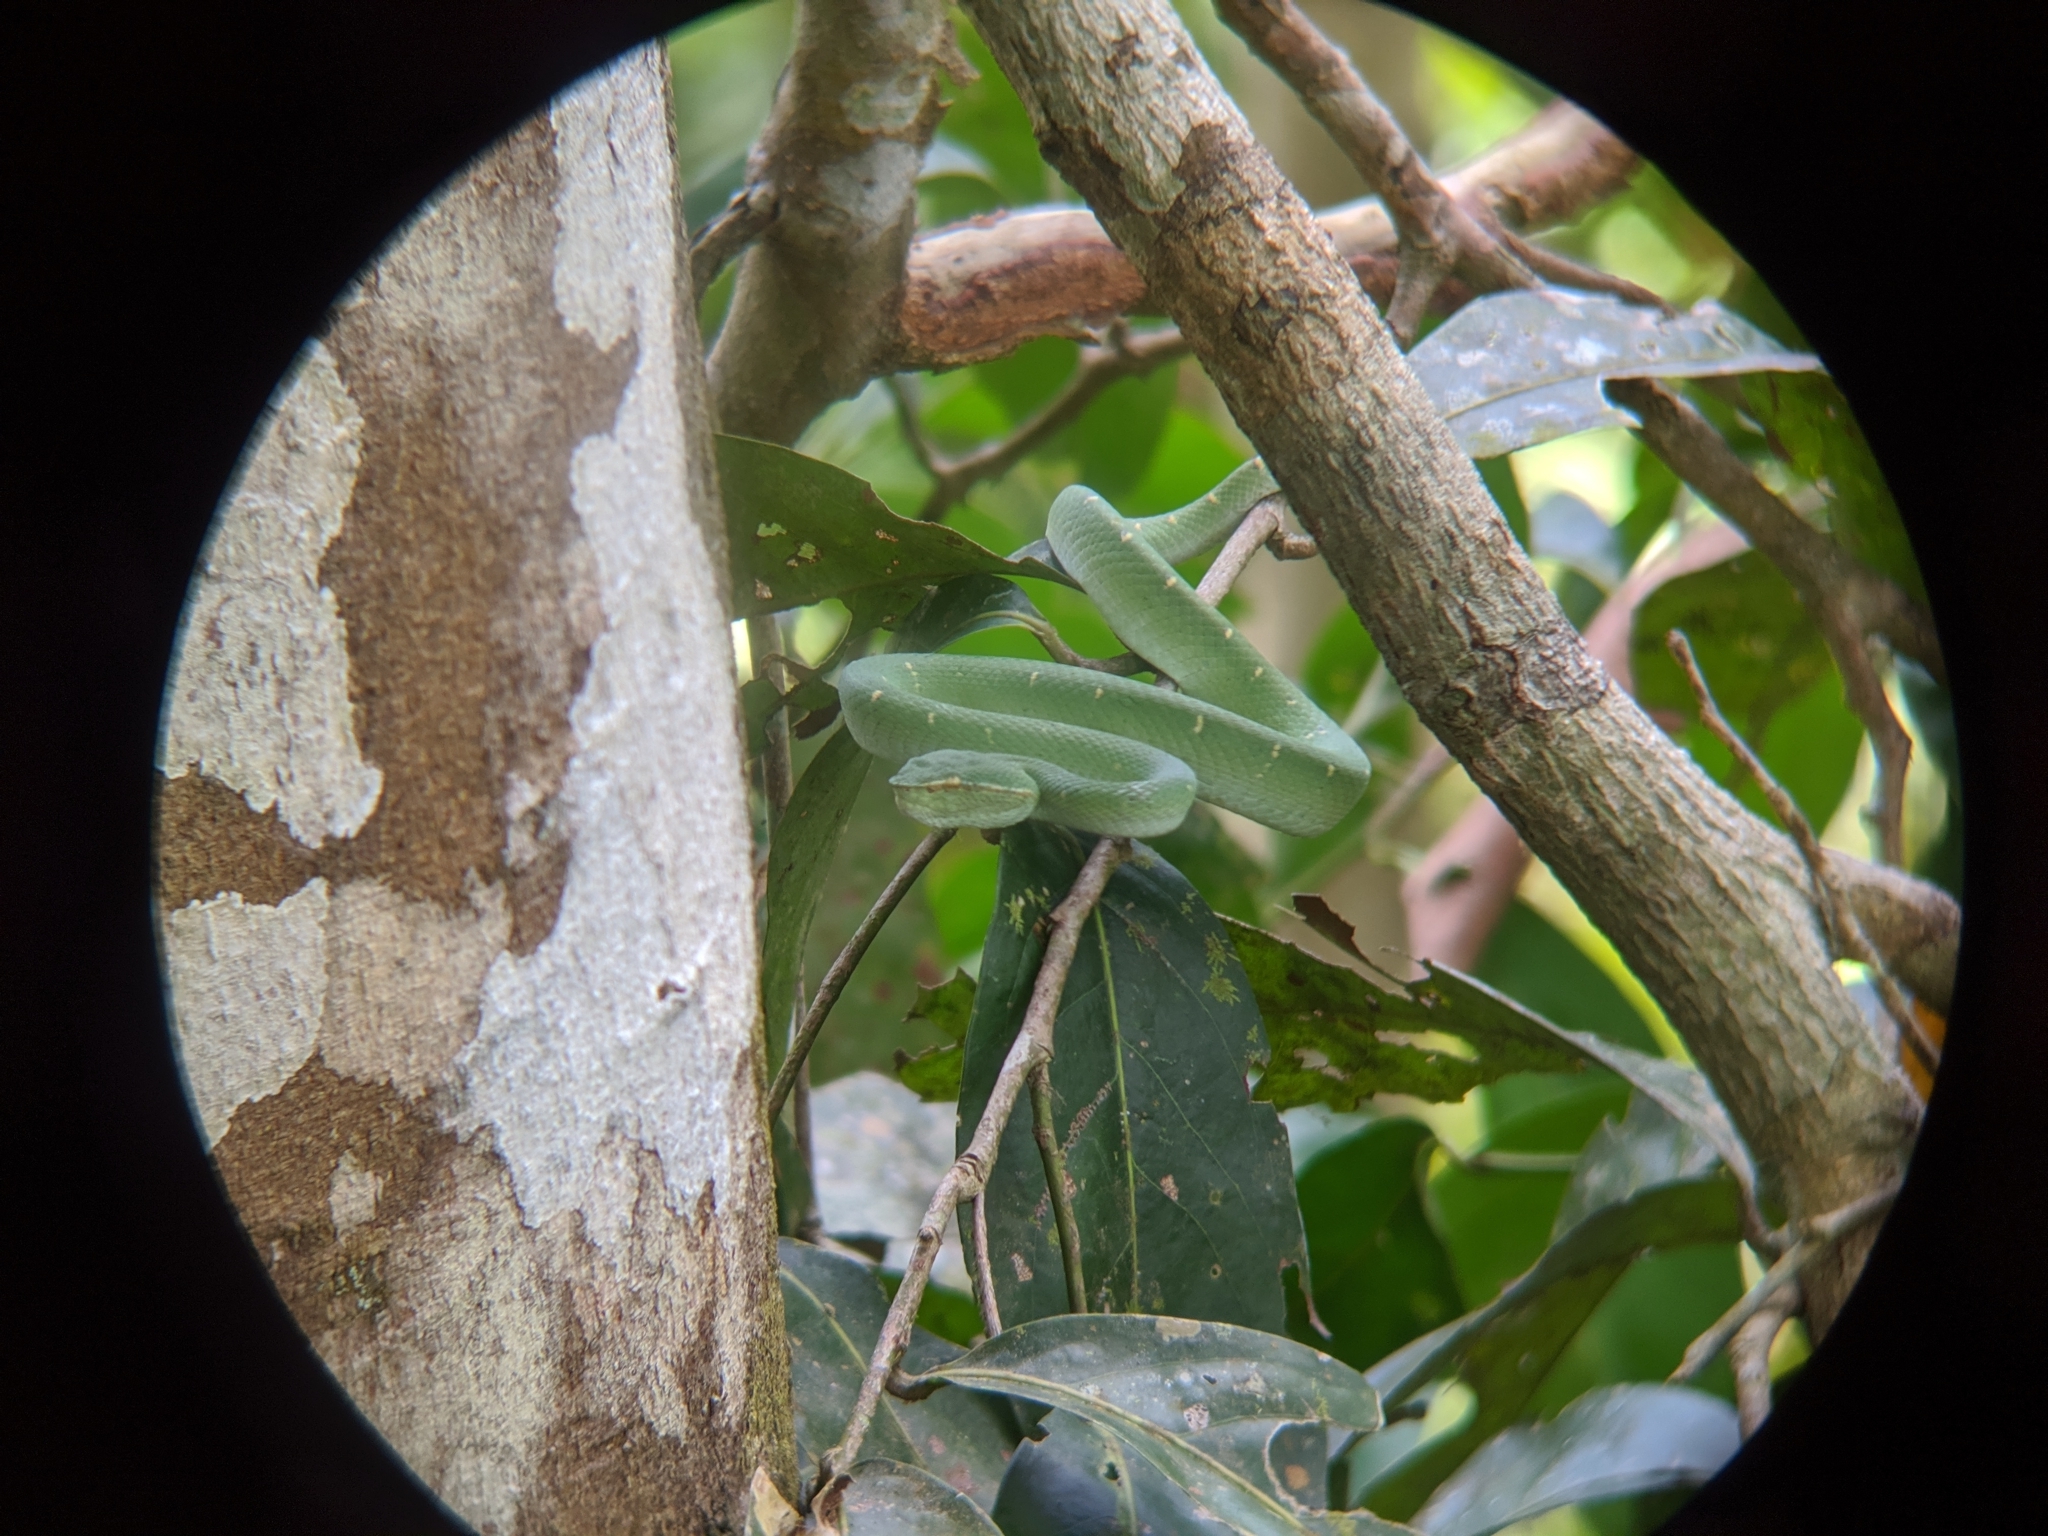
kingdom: Animalia
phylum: Chordata
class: Squamata
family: Viperidae
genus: Tropidolaemus
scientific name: Tropidolaemus subannulatus
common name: North philippine temple pitviper
